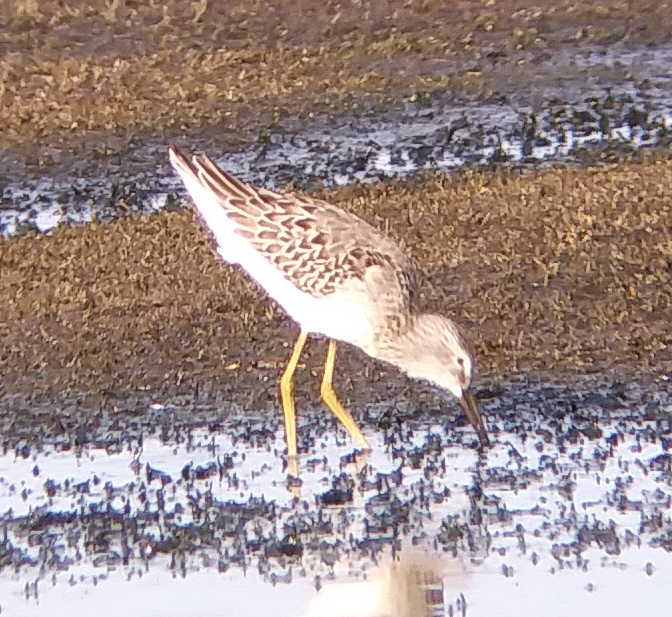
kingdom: Animalia
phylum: Chordata
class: Aves
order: Charadriiformes
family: Scolopacidae
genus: Calidris
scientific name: Calidris himantopus
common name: Stilt sandpiper
